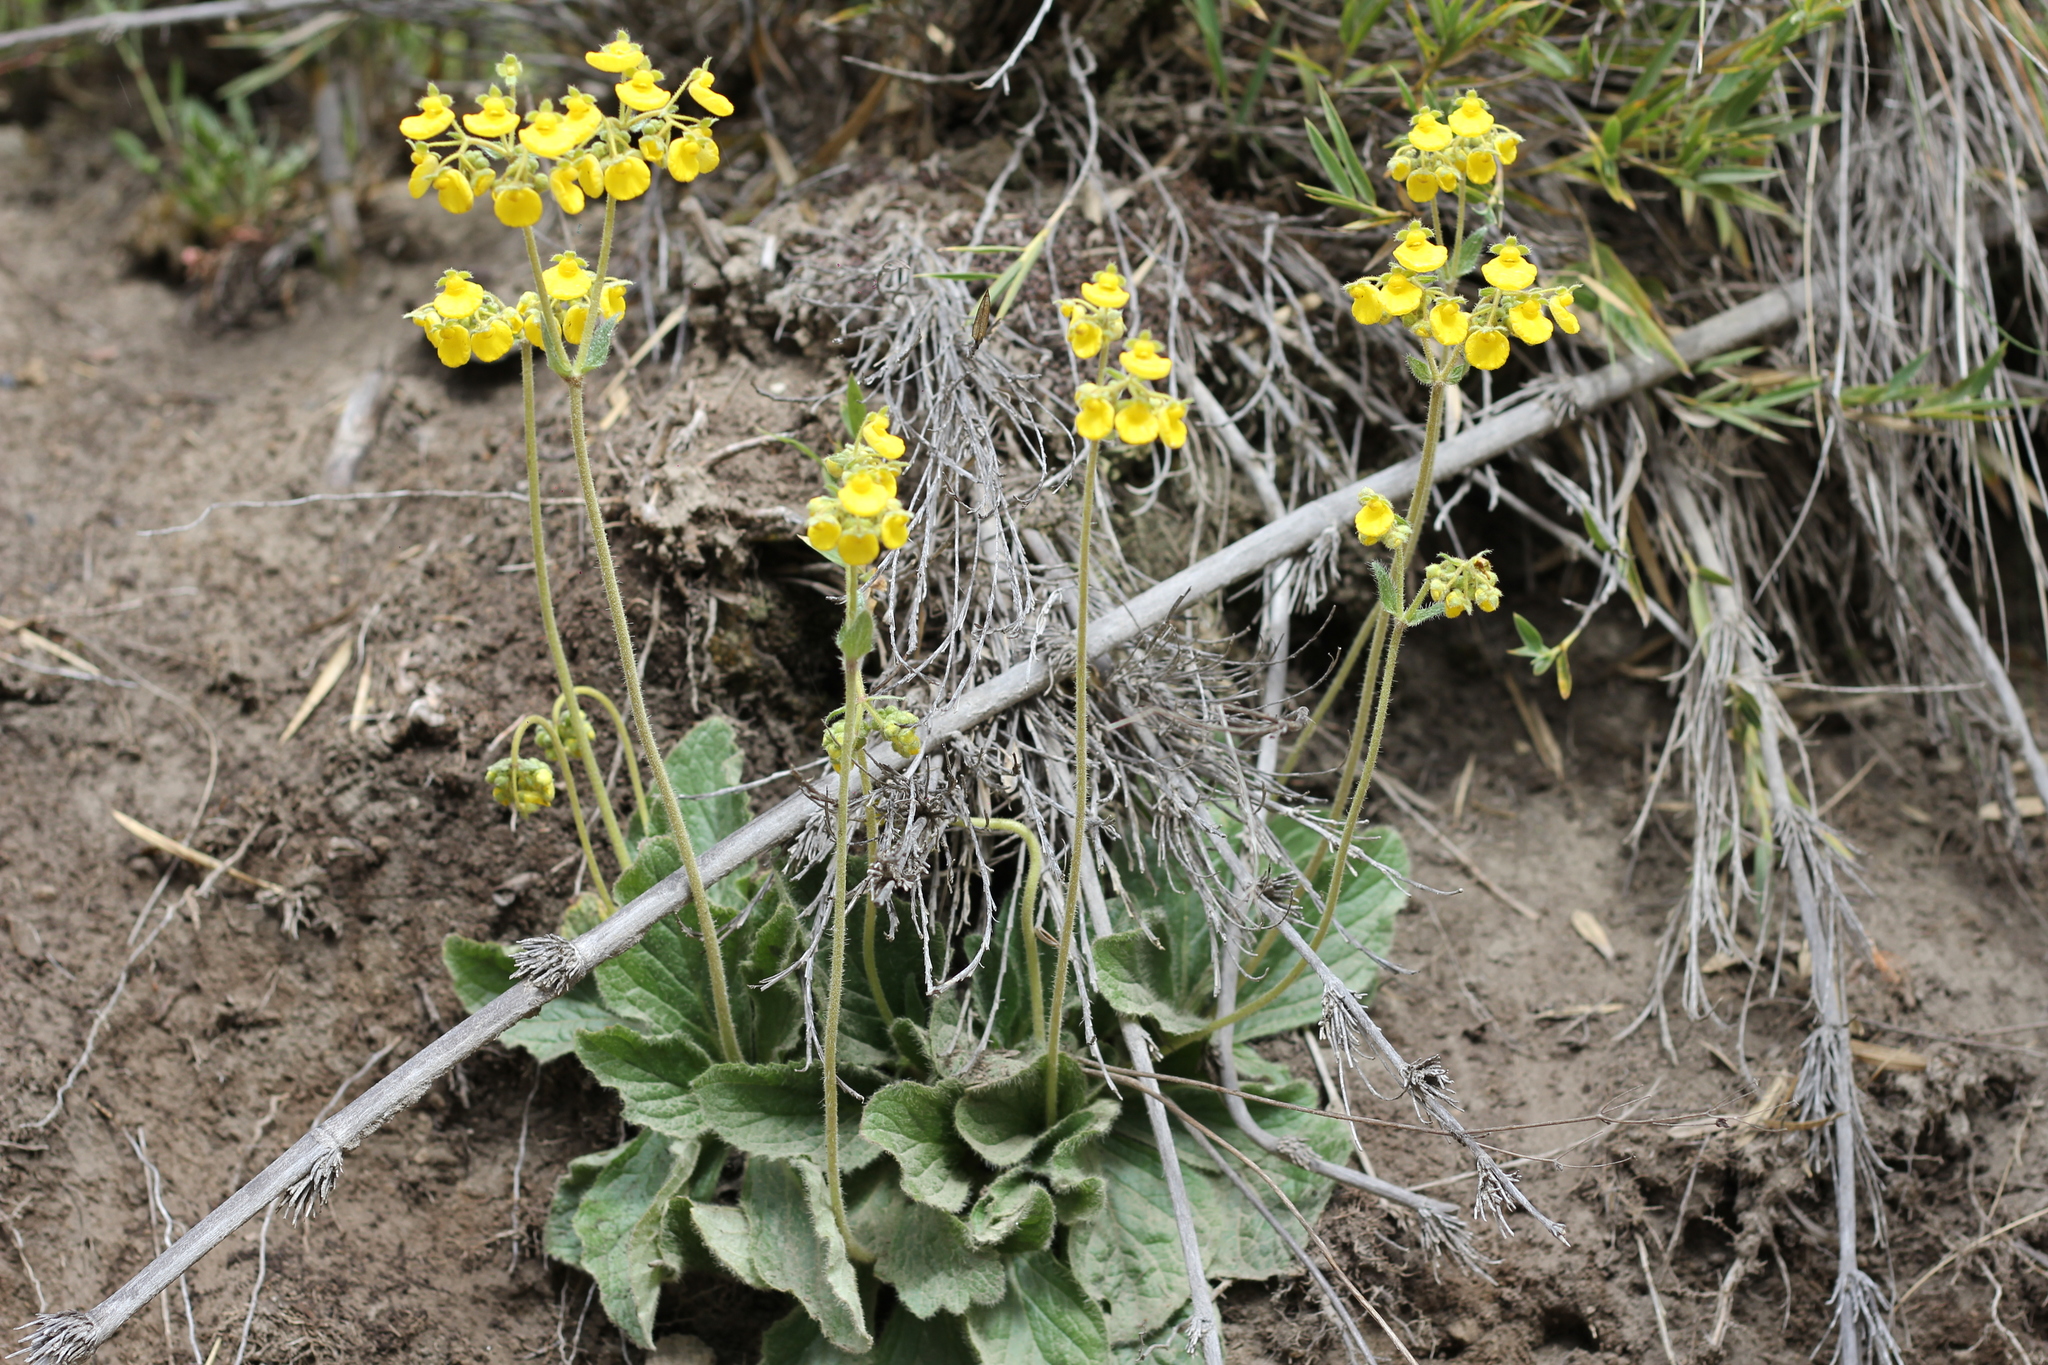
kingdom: Plantae
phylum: Tracheophyta
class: Magnoliopsida
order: Lamiales
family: Calceolariaceae
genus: Calceolaria
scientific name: Calceolaria valdiviana
